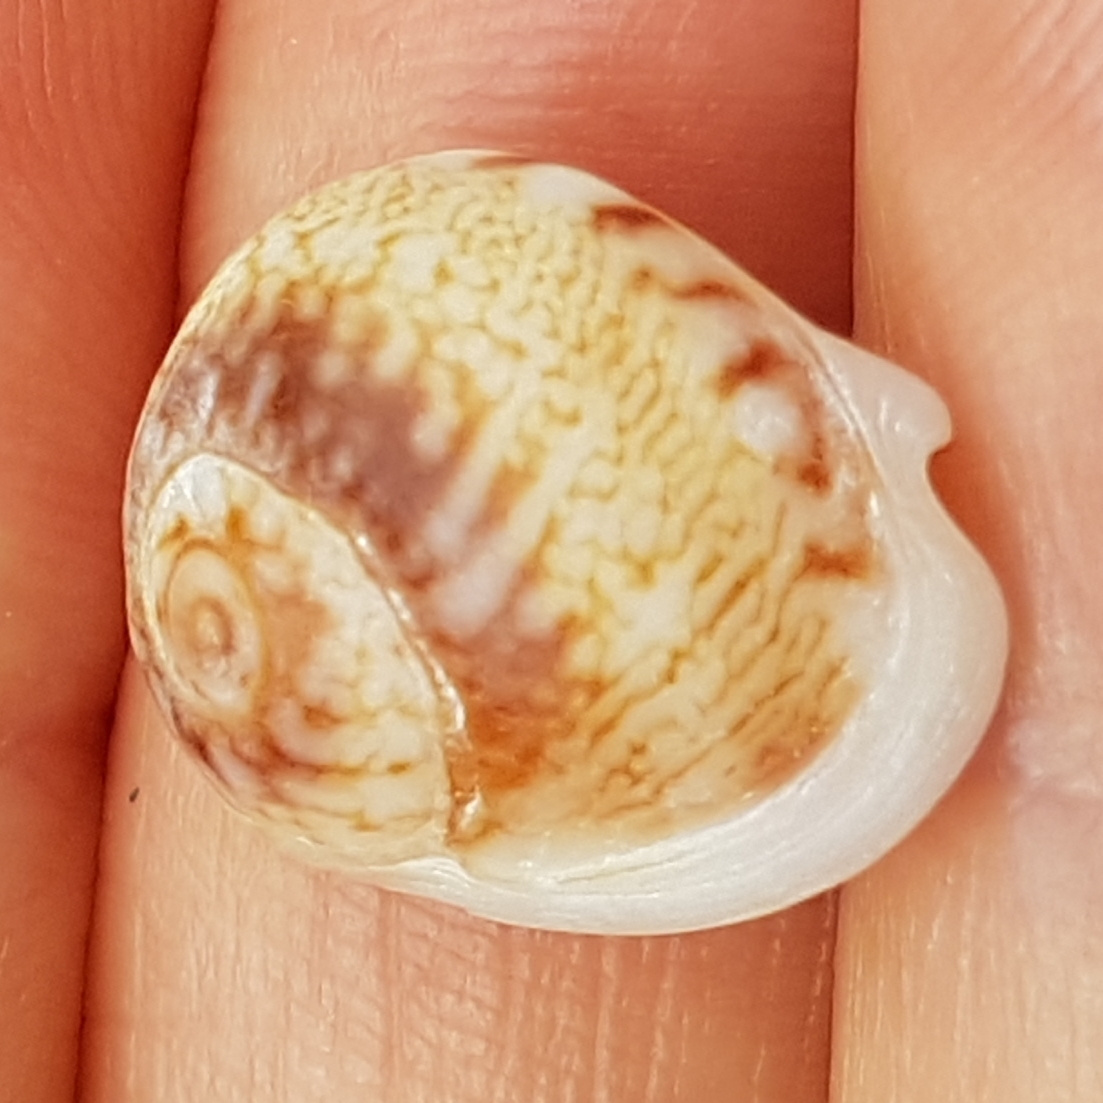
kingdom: Animalia
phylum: Mollusca
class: Gastropoda
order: Neogastropoda
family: Nassariidae
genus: Tritia
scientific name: Tritia neritea
